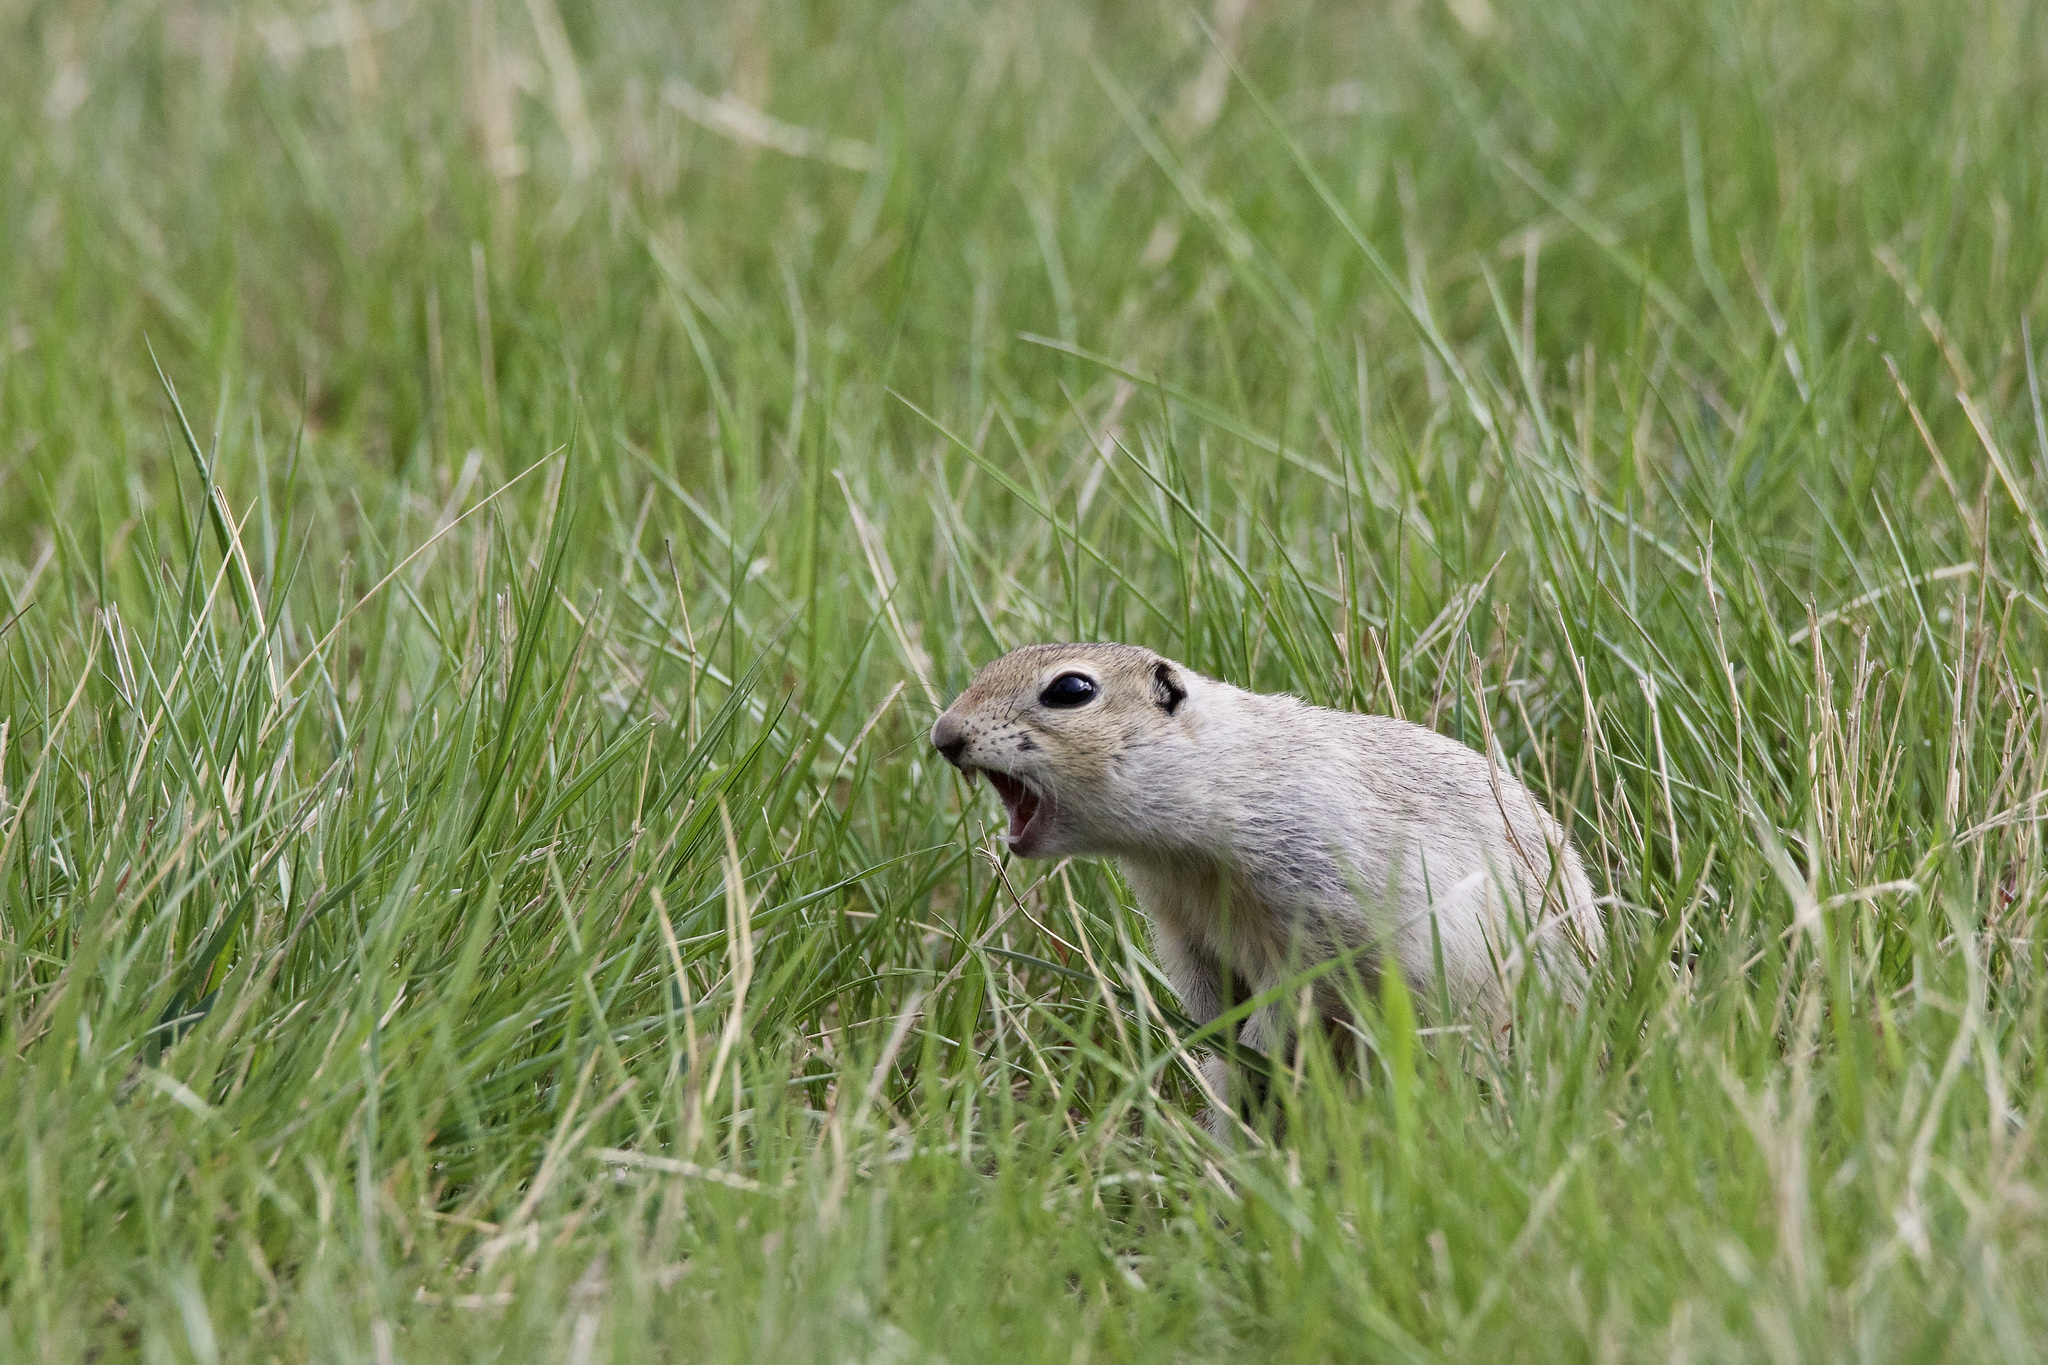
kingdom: Animalia
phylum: Chordata
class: Mammalia
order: Rodentia
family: Sciuridae
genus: Urocitellus
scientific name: Urocitellus richardsonii
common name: Richardson's ground squirrel
